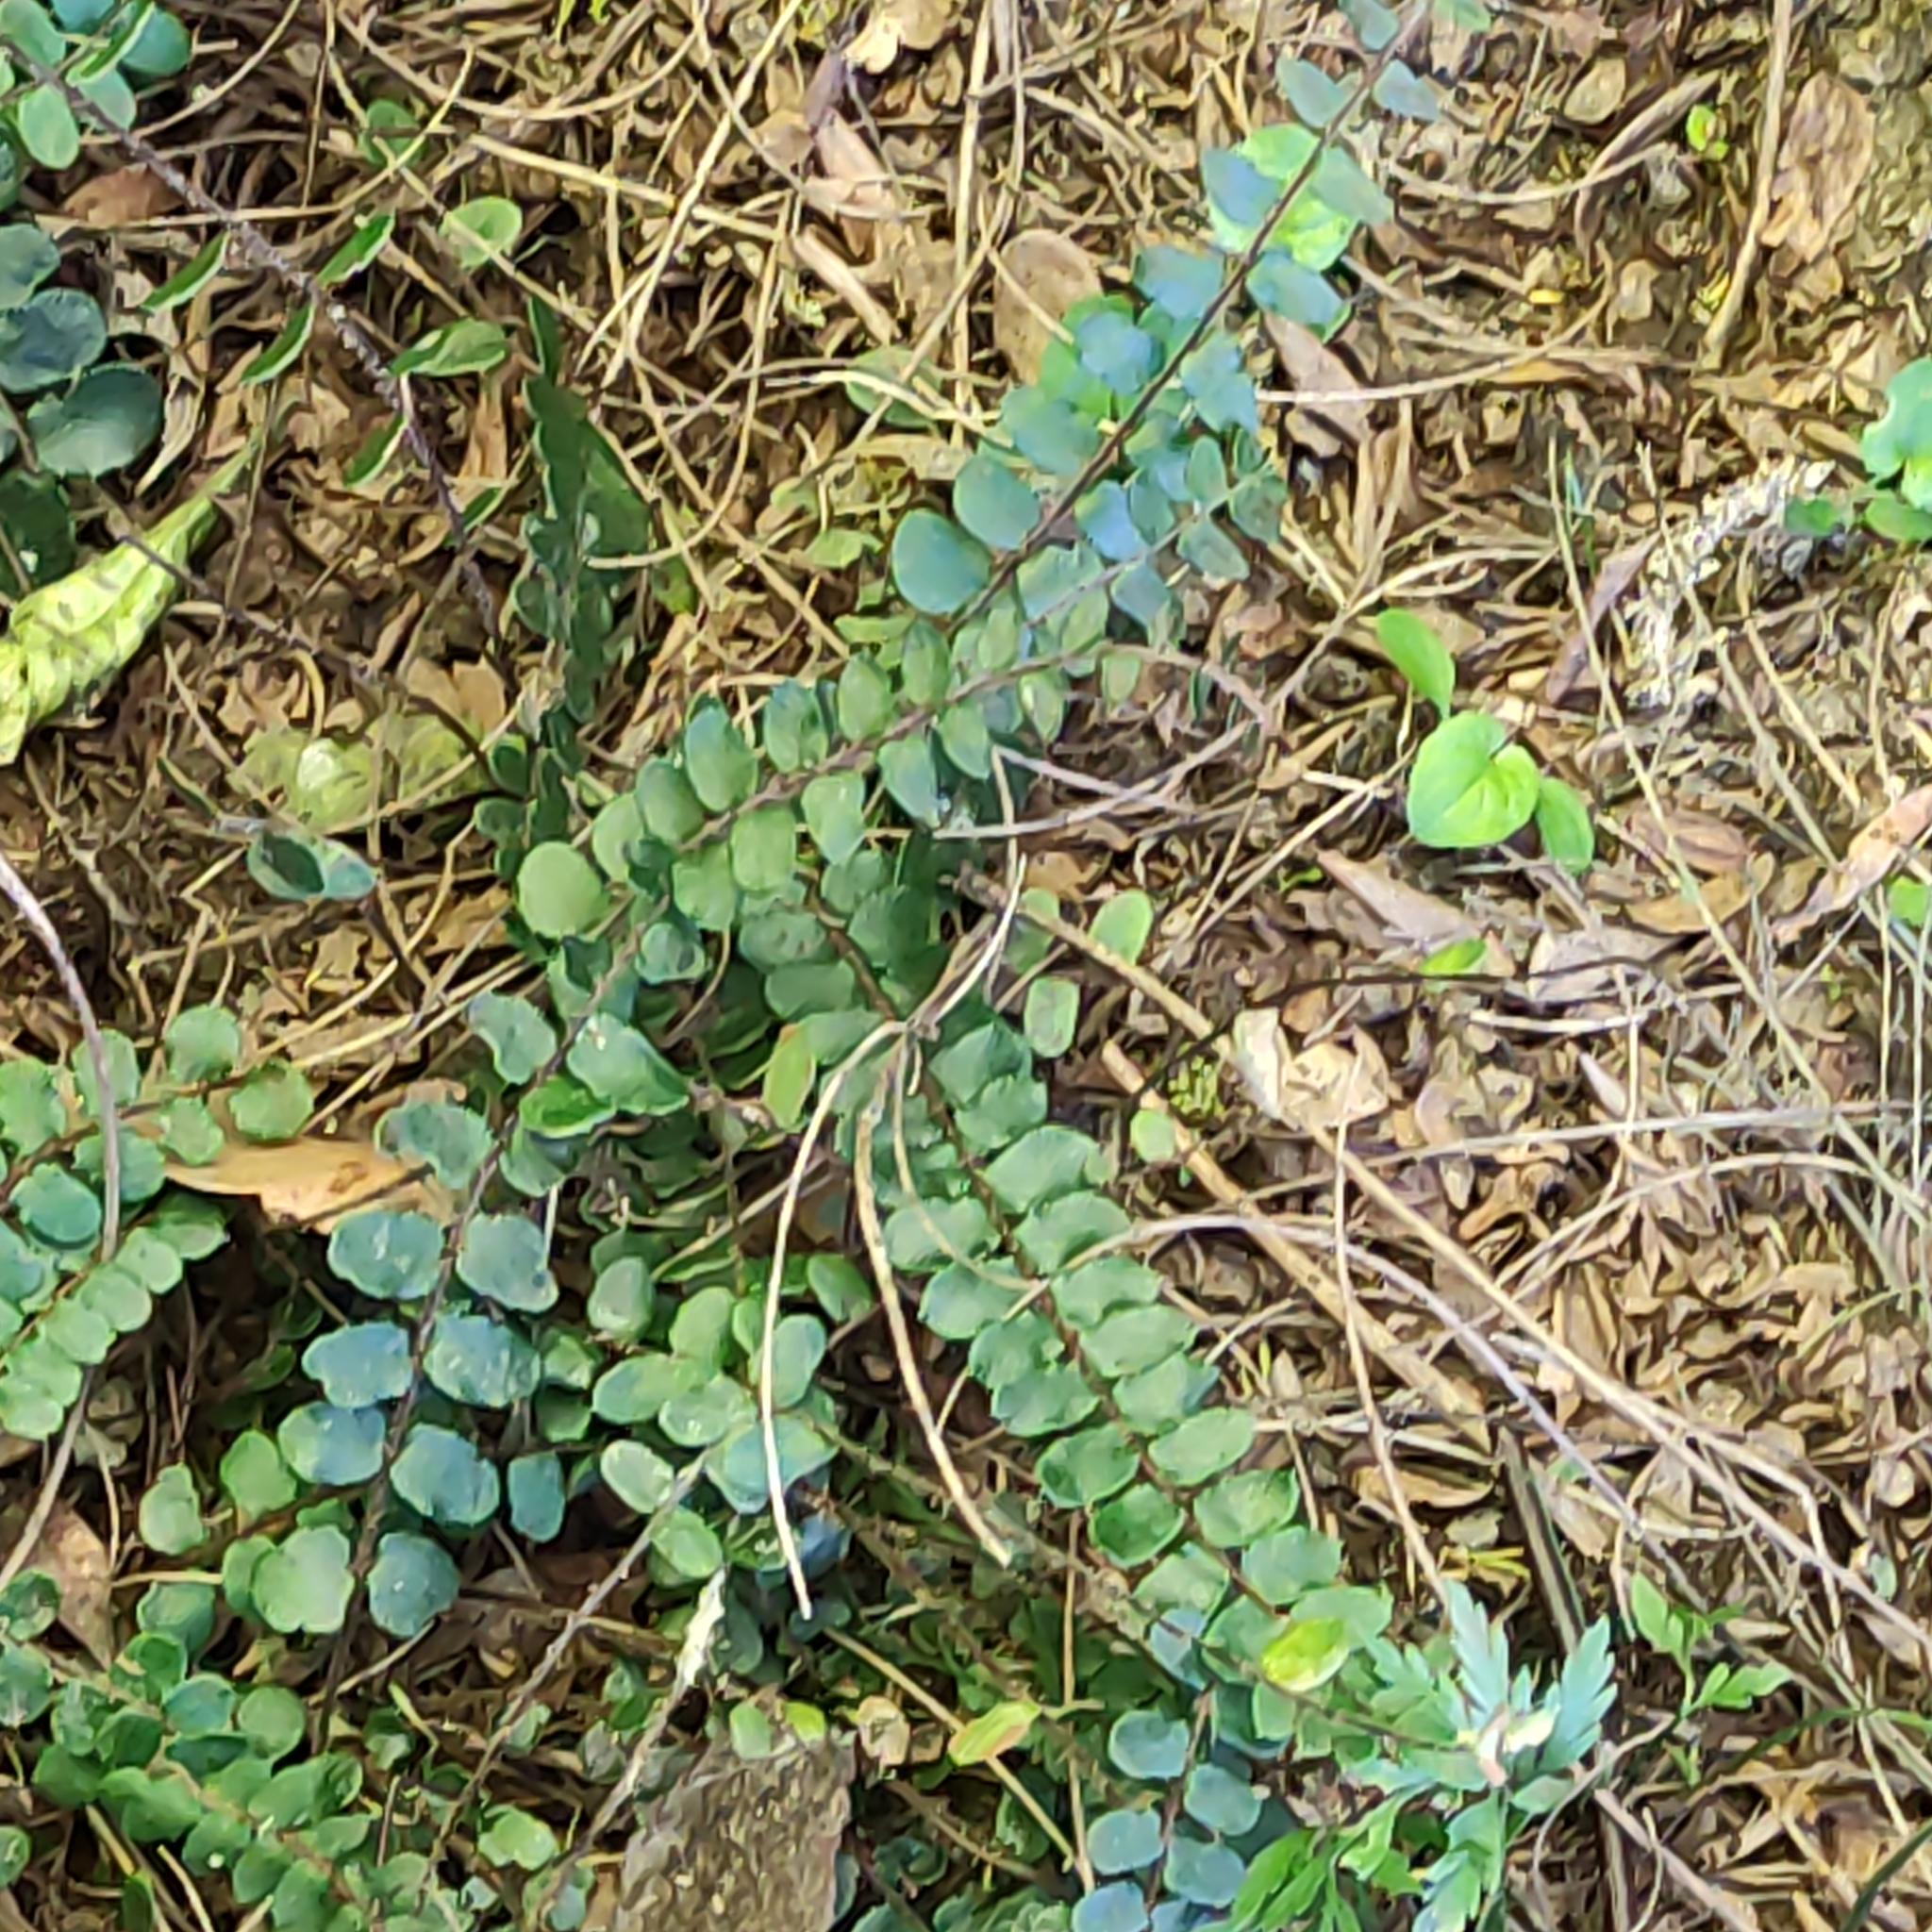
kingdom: Plantae
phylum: Tracheophyta
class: Polypodiopsida
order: Polypodiales
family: Pteridaceae
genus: Pellaea
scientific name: Pellaea rotundifolia
